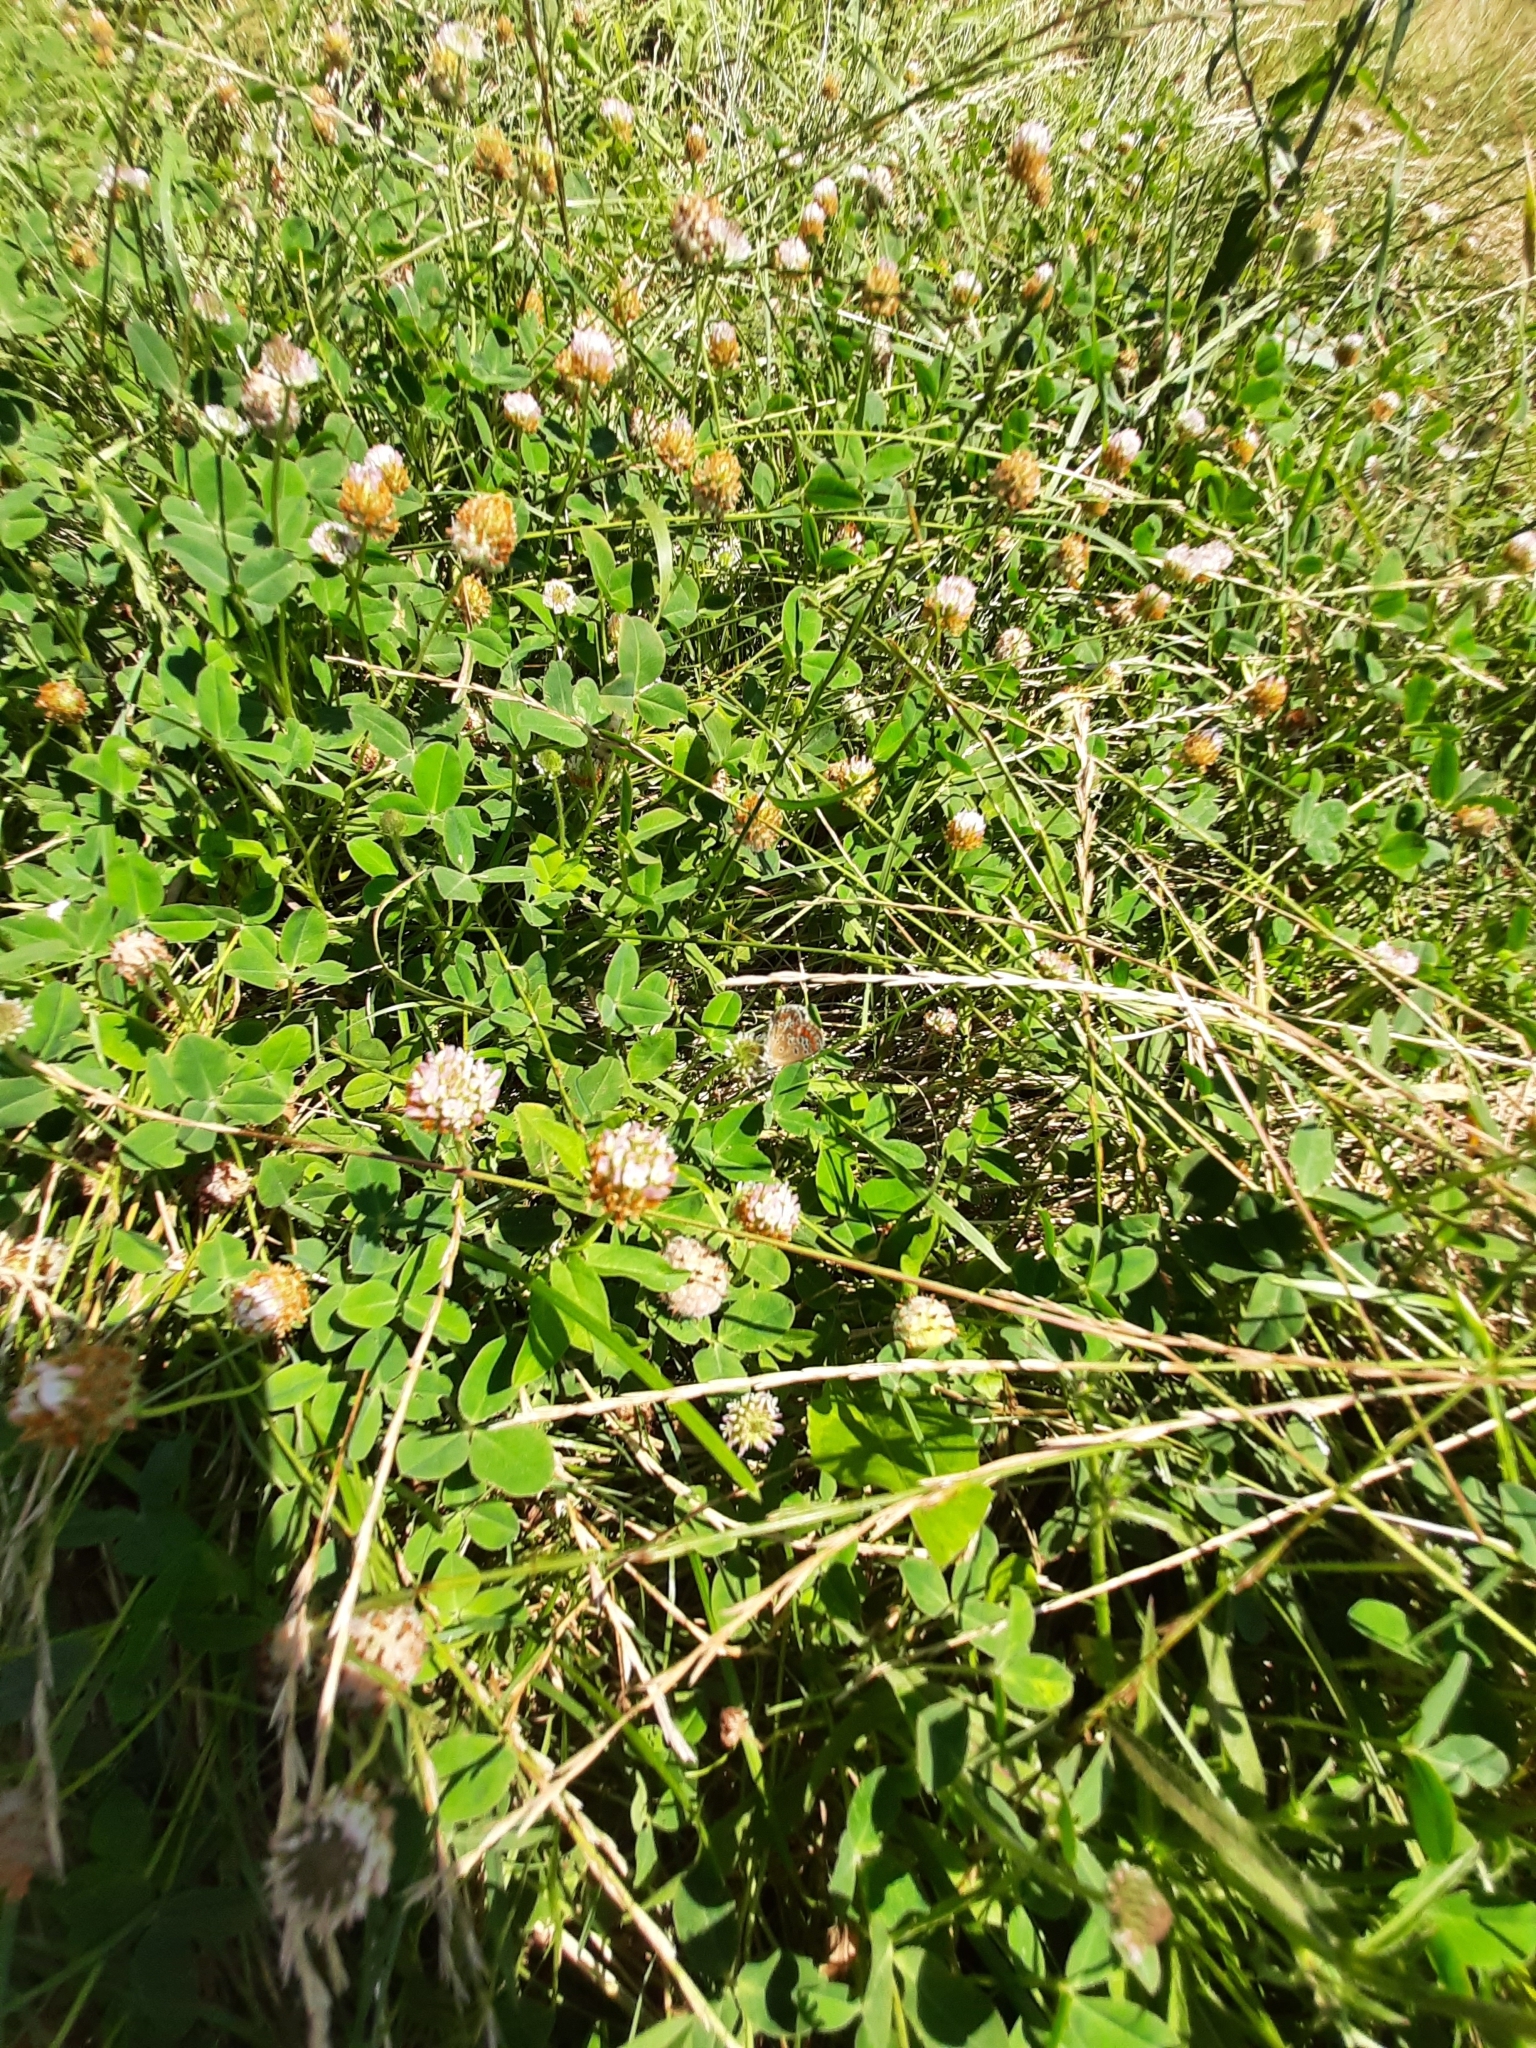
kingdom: Plantae
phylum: Tracheophyta
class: Magnoliopsida
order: Fabales
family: Fabaceae
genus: Trifolium
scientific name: Trifolium fragiferum
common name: Strawberry clover
